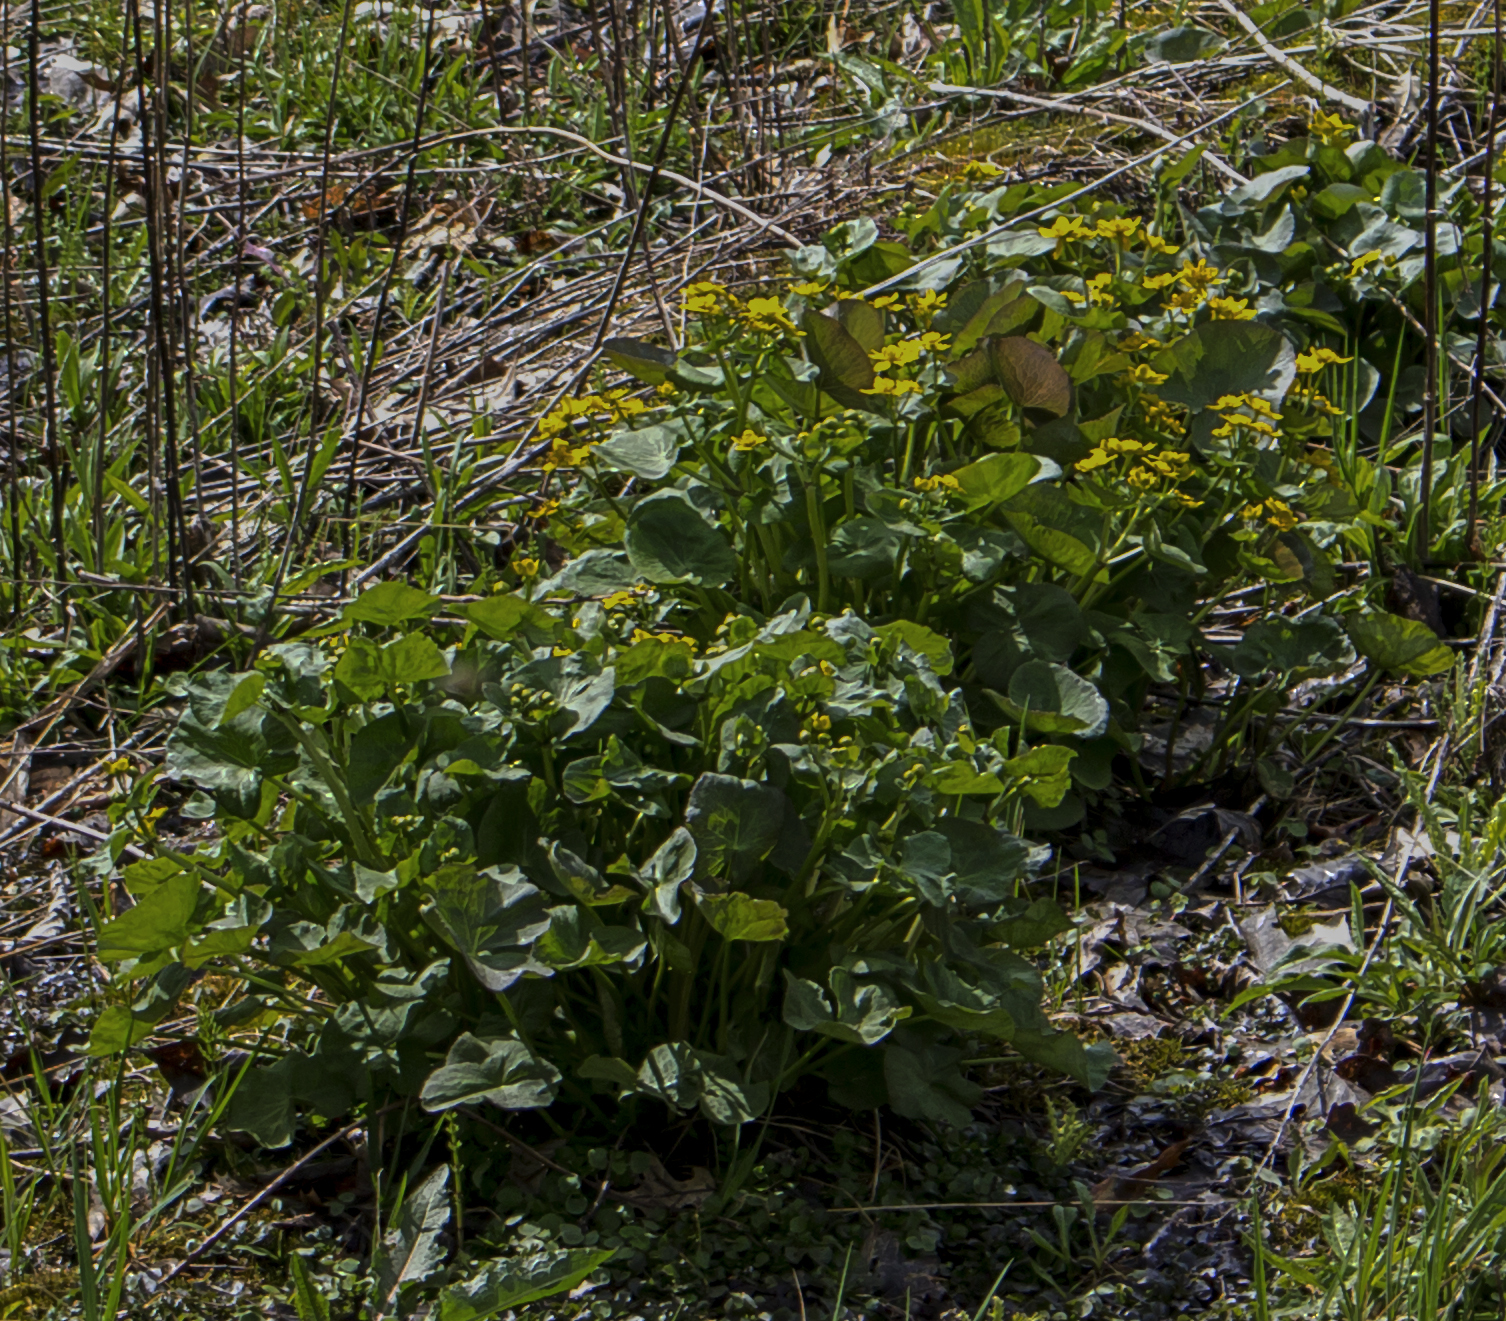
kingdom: Plantae
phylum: Tracheophyta
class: Magnoliopsida
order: Ranunculales
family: Ranunculaceae
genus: Caltha
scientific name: Caltha palustris
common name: Marsh marigold
